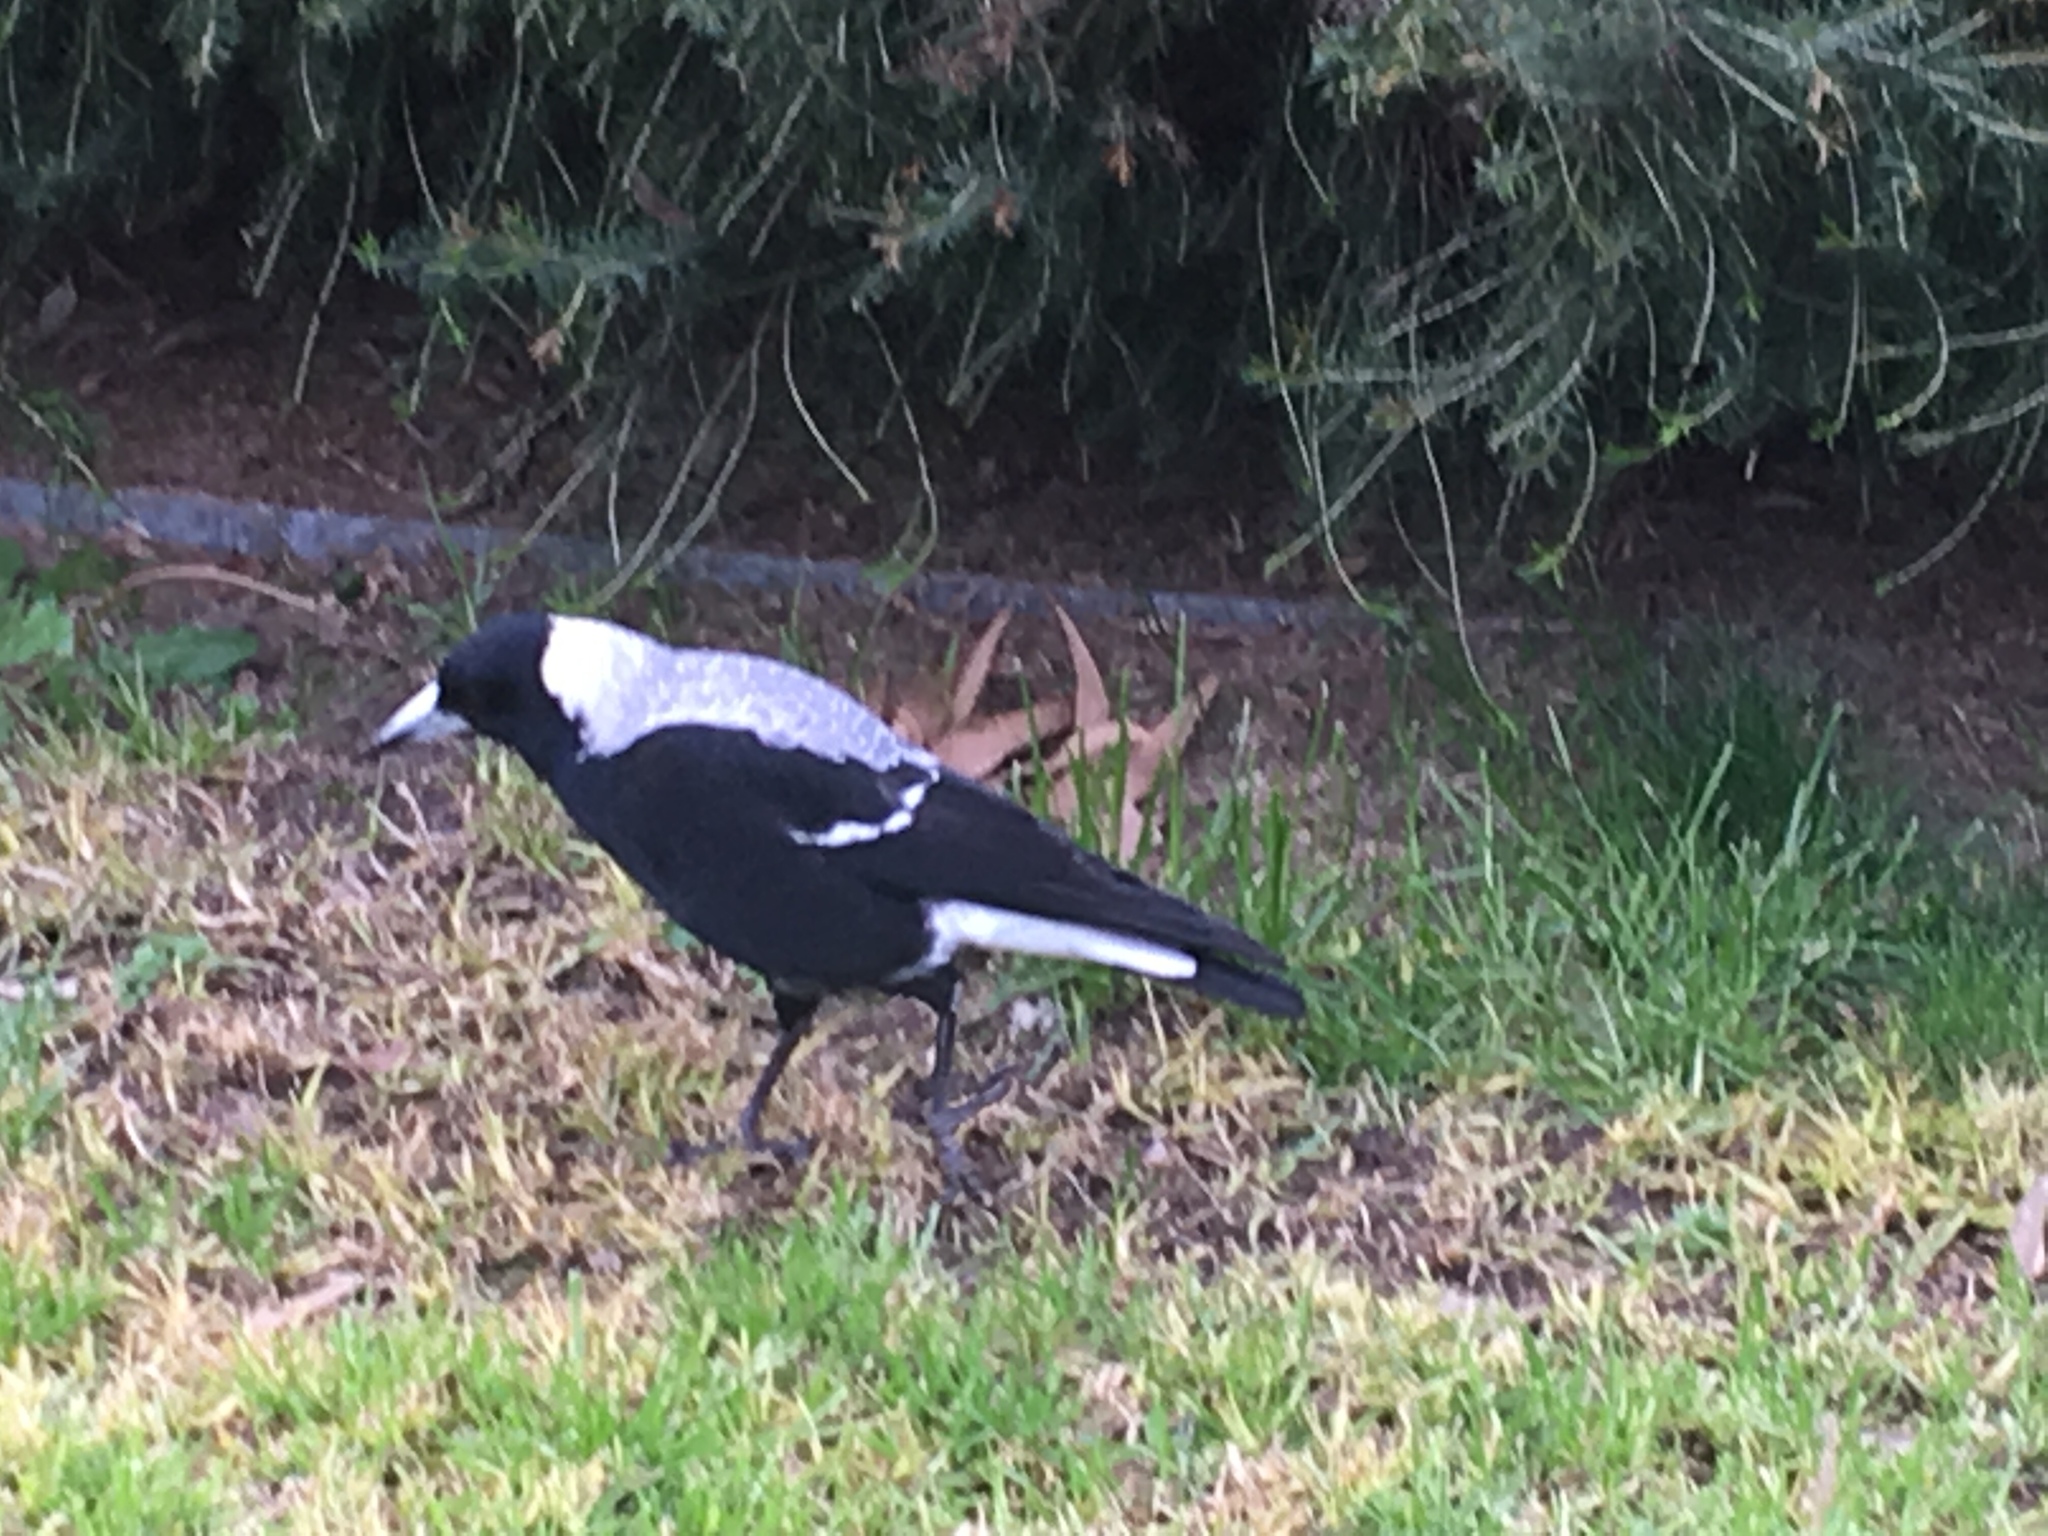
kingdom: Animalia
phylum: Chordata
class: Aves
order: Passeriformes
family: Cracticidae
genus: Gymnorhina
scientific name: Gymnorhina tibicen
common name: Australian magpie
